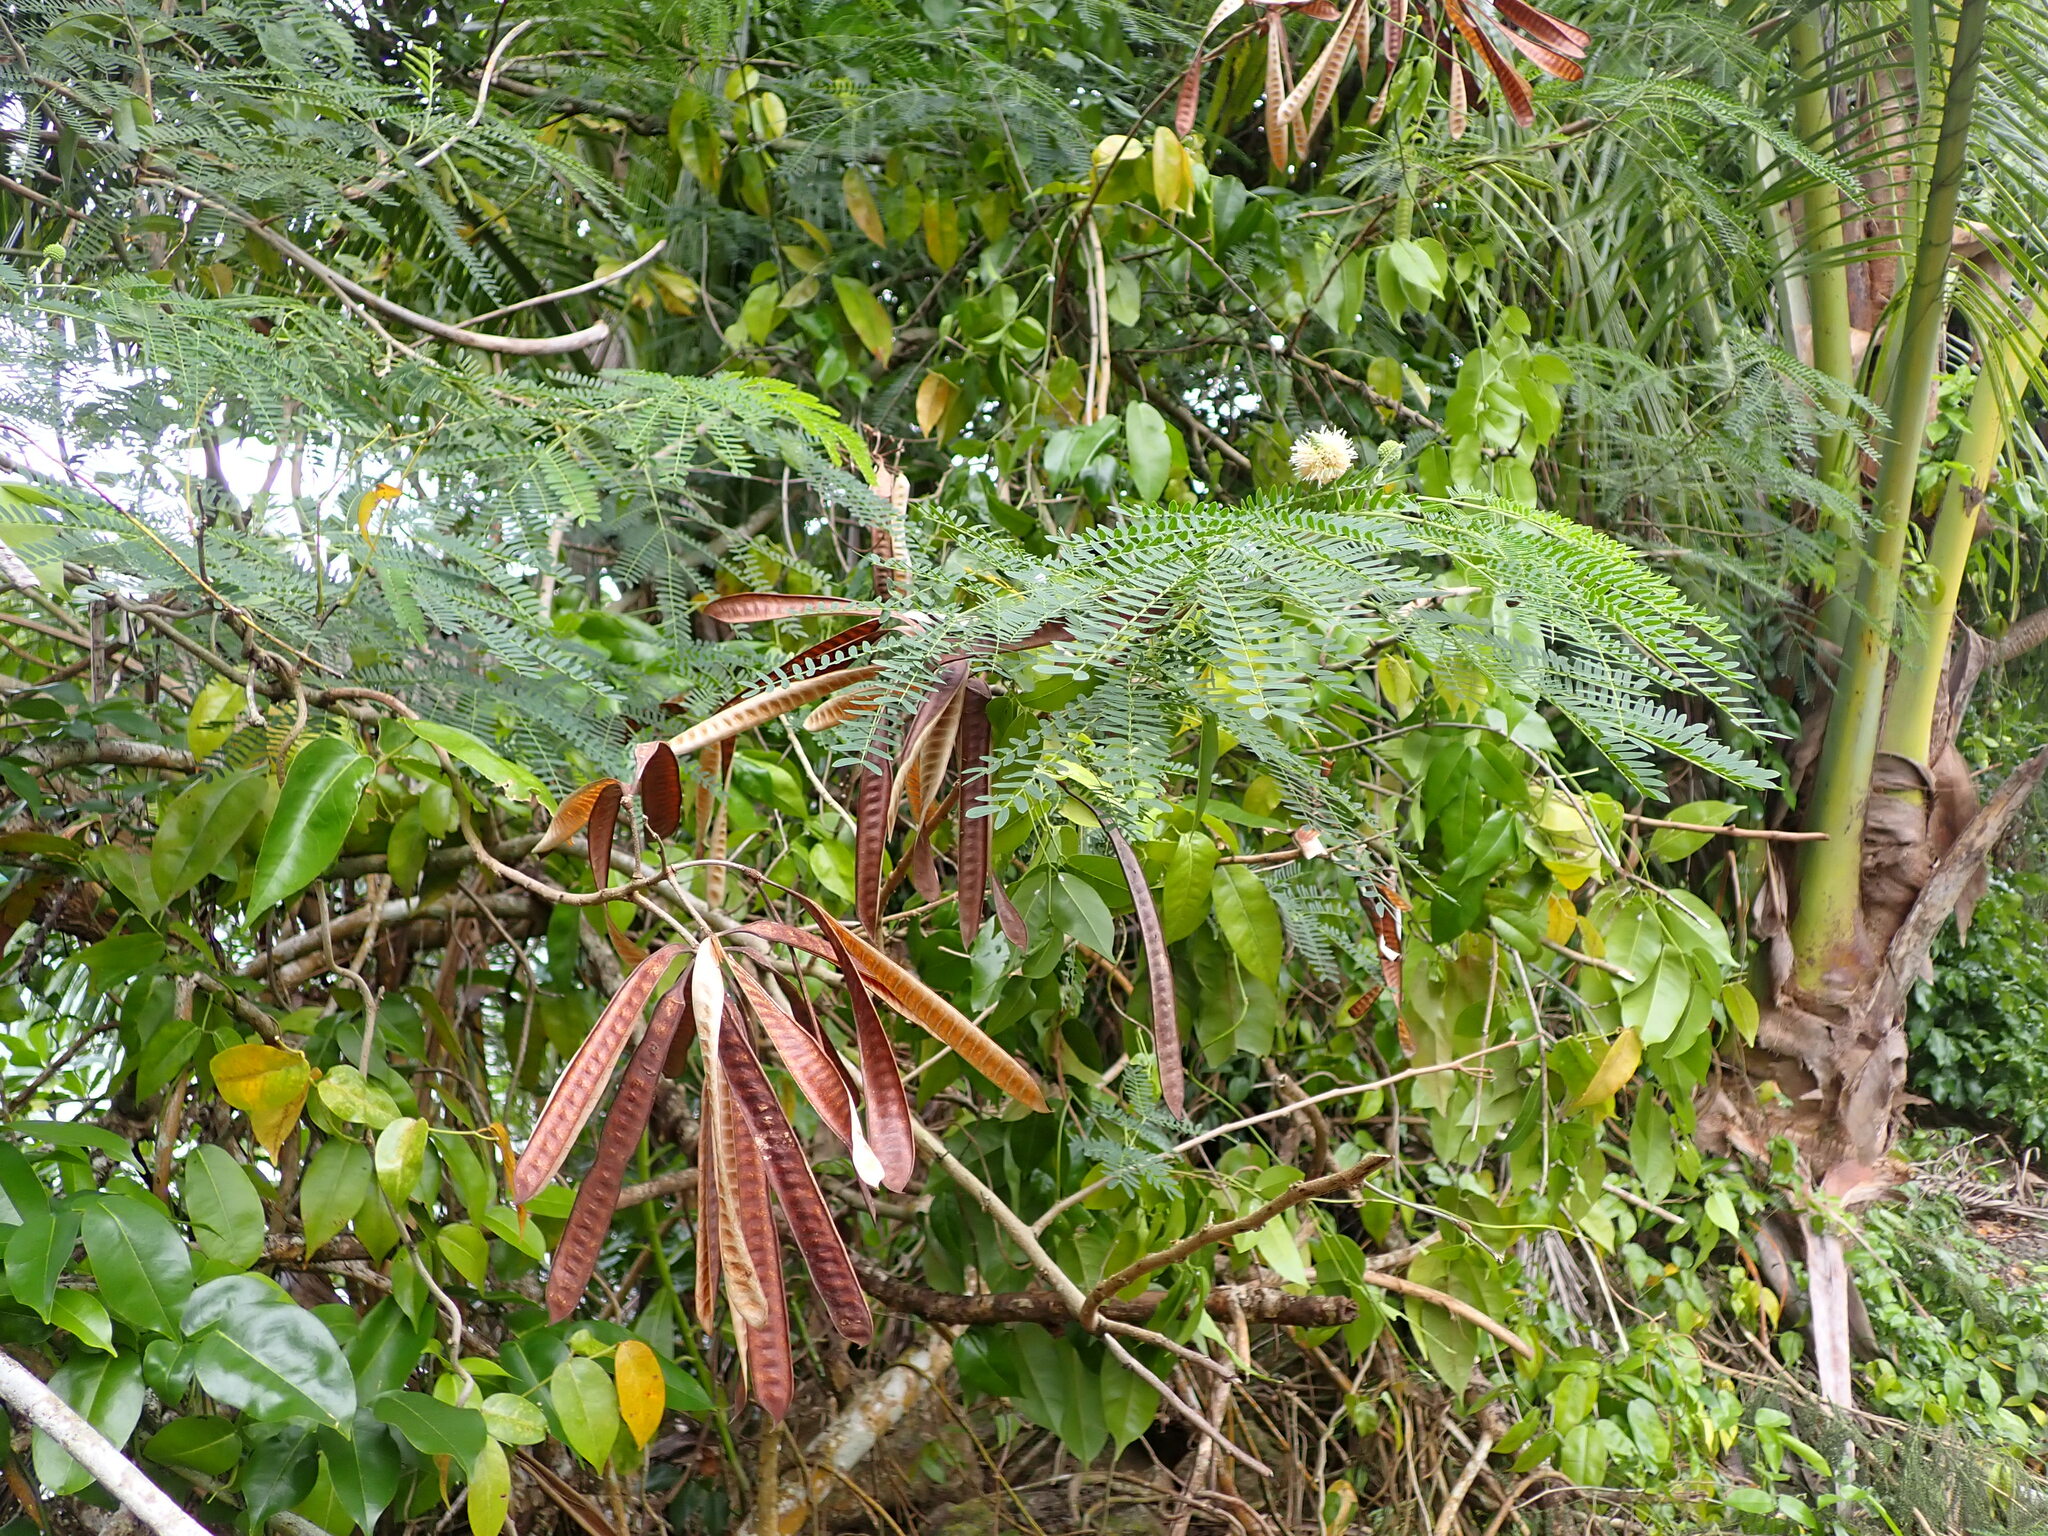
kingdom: Plantae
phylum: Tracheophyta
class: Magnoliopsida
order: Fabales
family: Fabaceae
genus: Leucaena
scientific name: Leucaena leucocephala
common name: White leadtree
